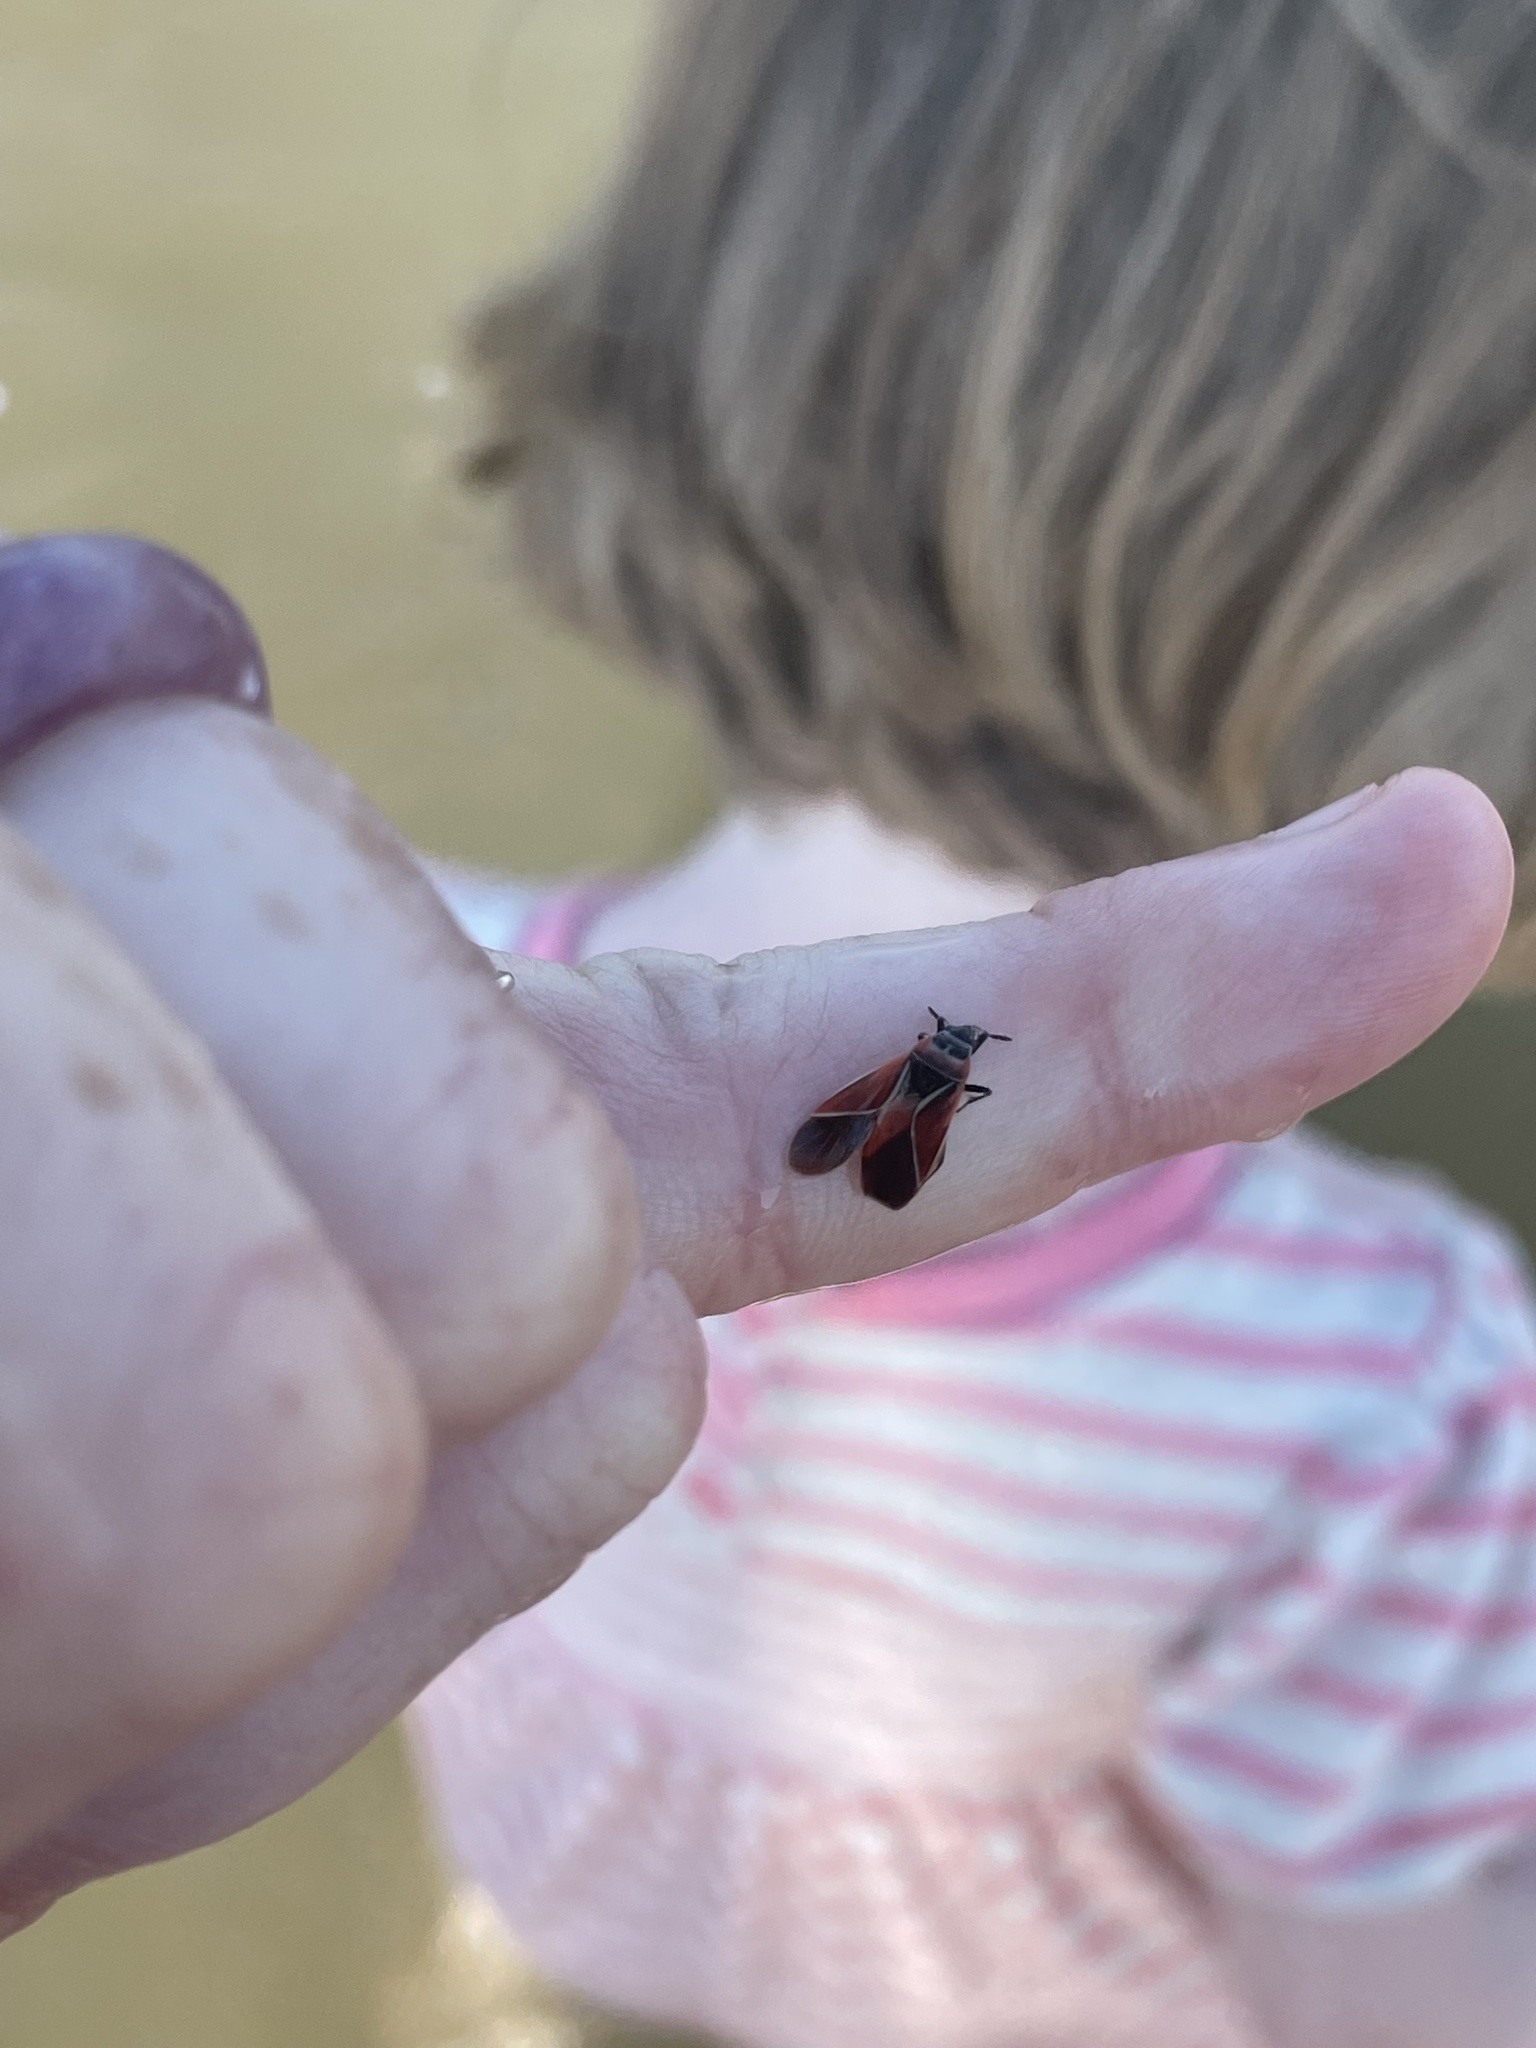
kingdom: Animalia
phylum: Arthropoda
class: Insecta
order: Hemiptera
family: Lygaeidae
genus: Neacoryphus
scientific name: Neacoryphus bicrucis
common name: Lygaeid bug
